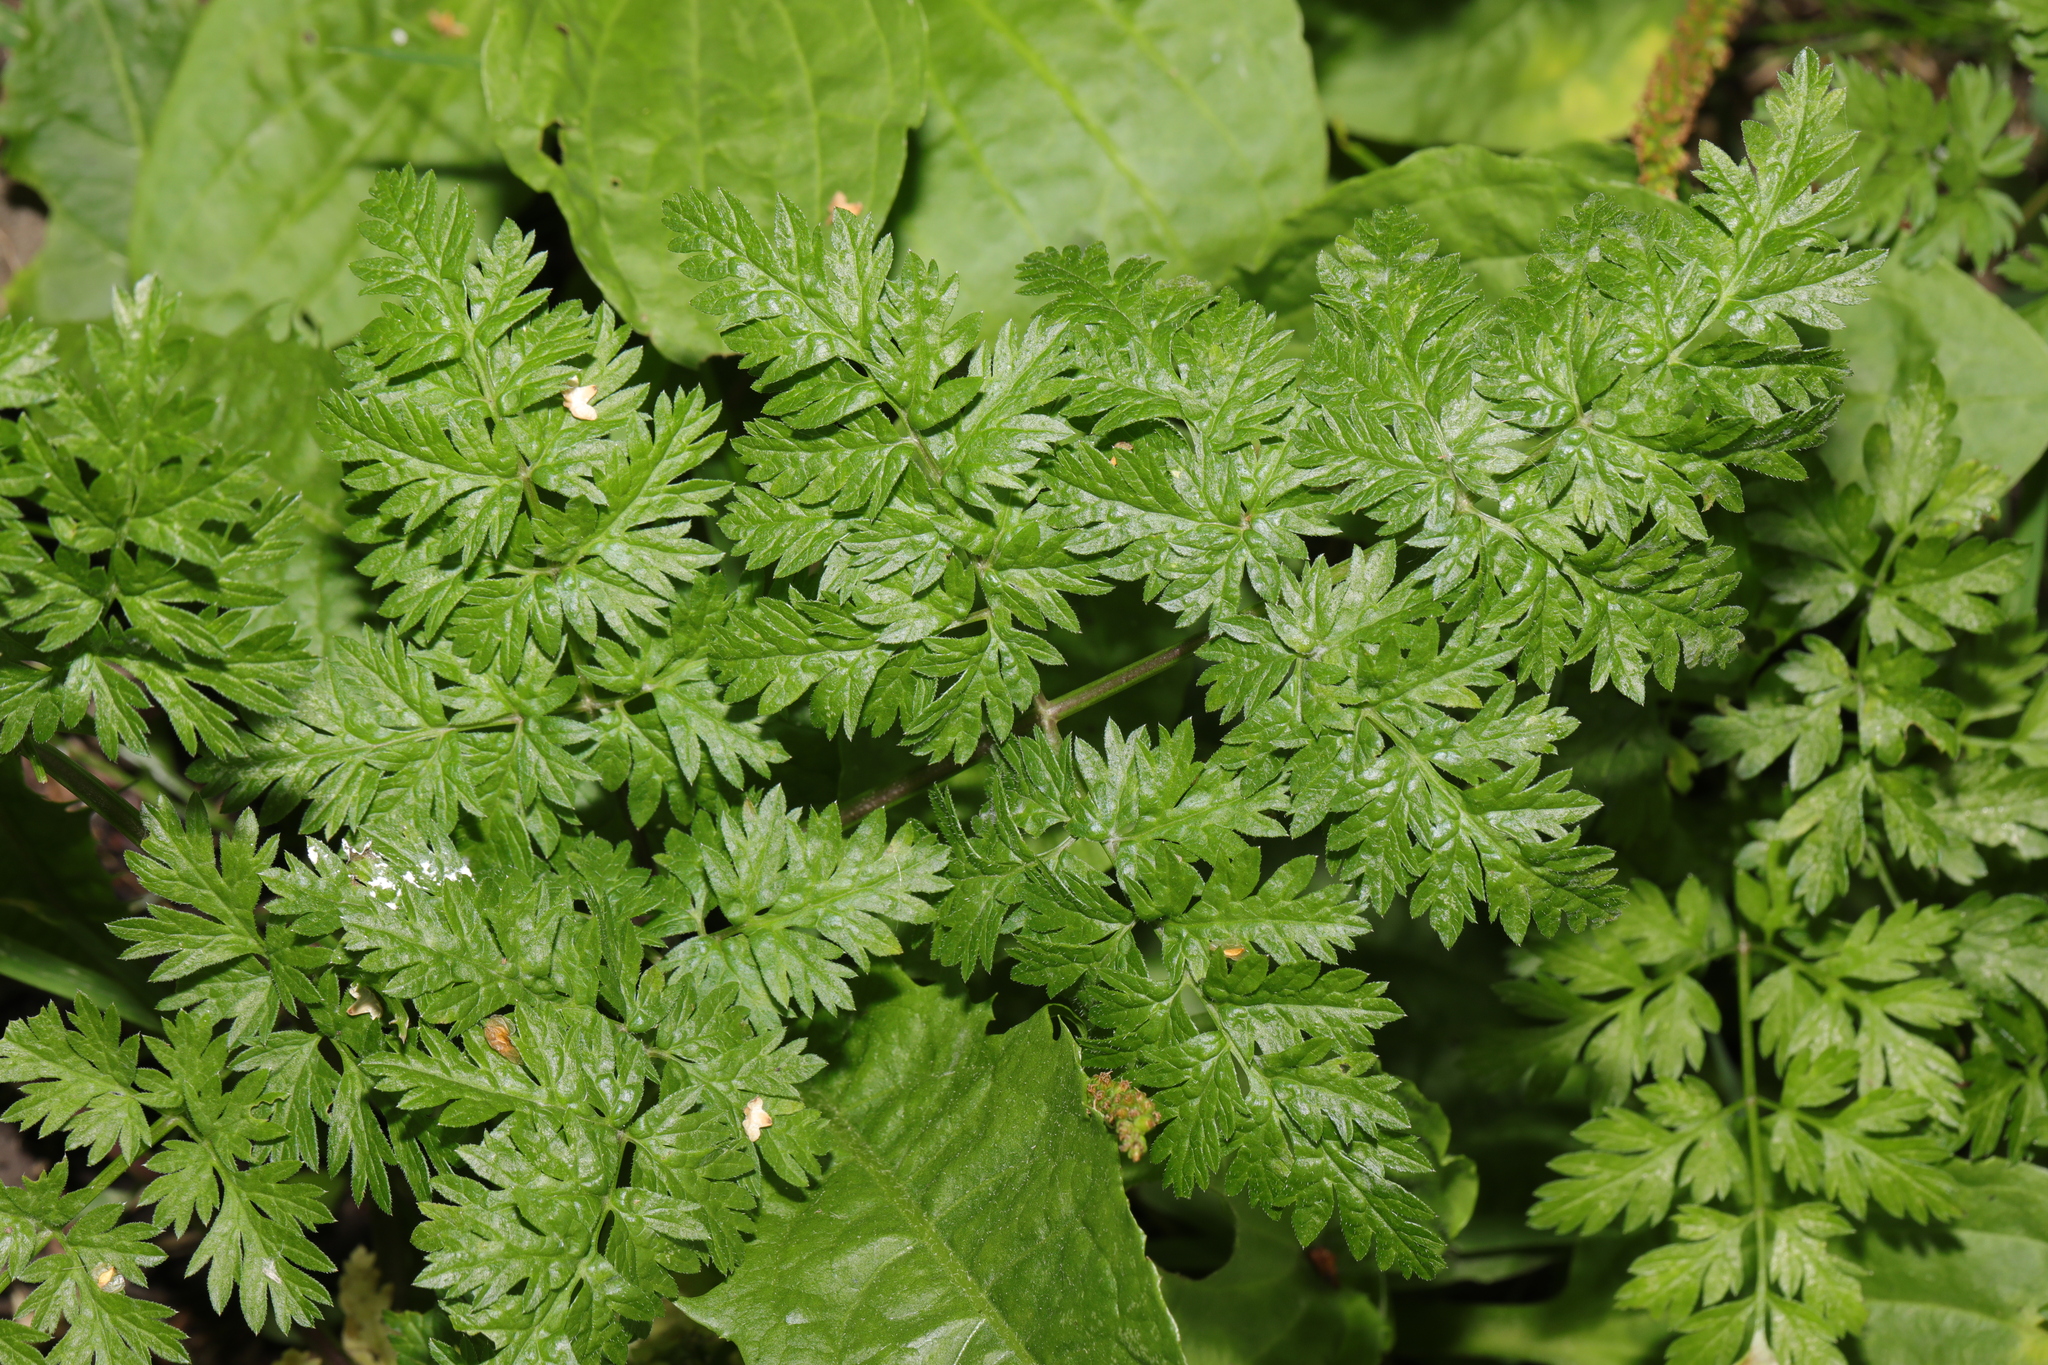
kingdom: Plantae
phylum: Tracheophyta
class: Magnoliopsida
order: Apiales
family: Apiaceae
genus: Anthriscus
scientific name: Anthriscus sylvestris
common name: Cow parsley
